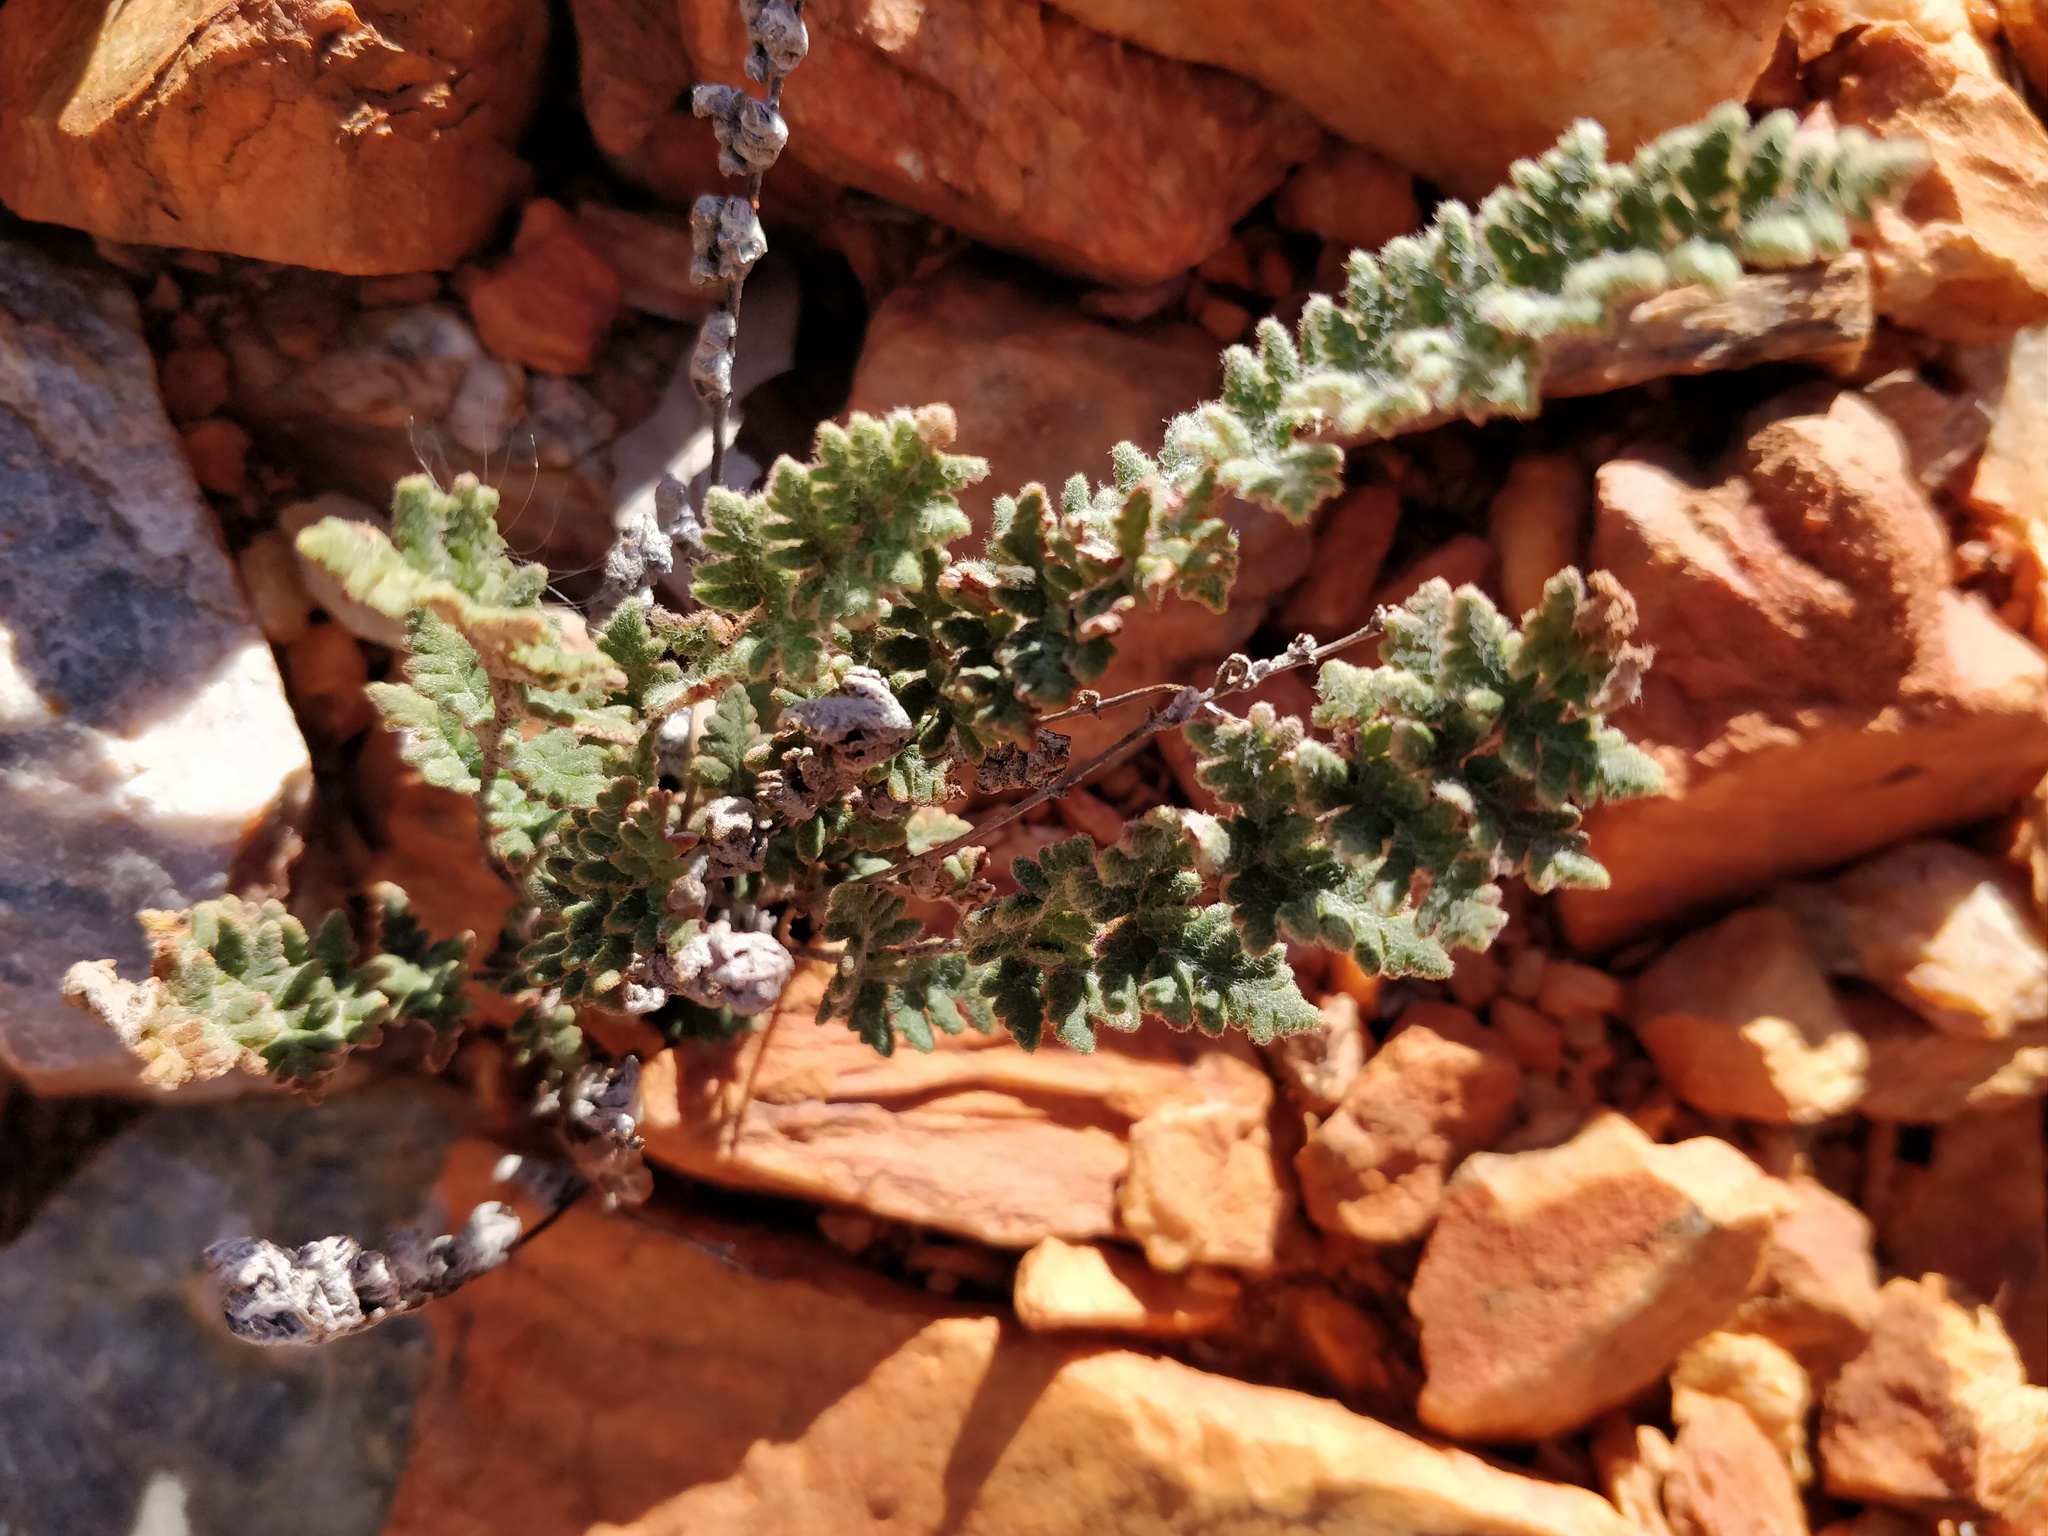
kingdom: Plantae
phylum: Tracheophyta
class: Polypodiopsida
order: Polypodiales
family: Pteridaceae
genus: Cheilanthes
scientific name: Cheilanthes lasiophylla
